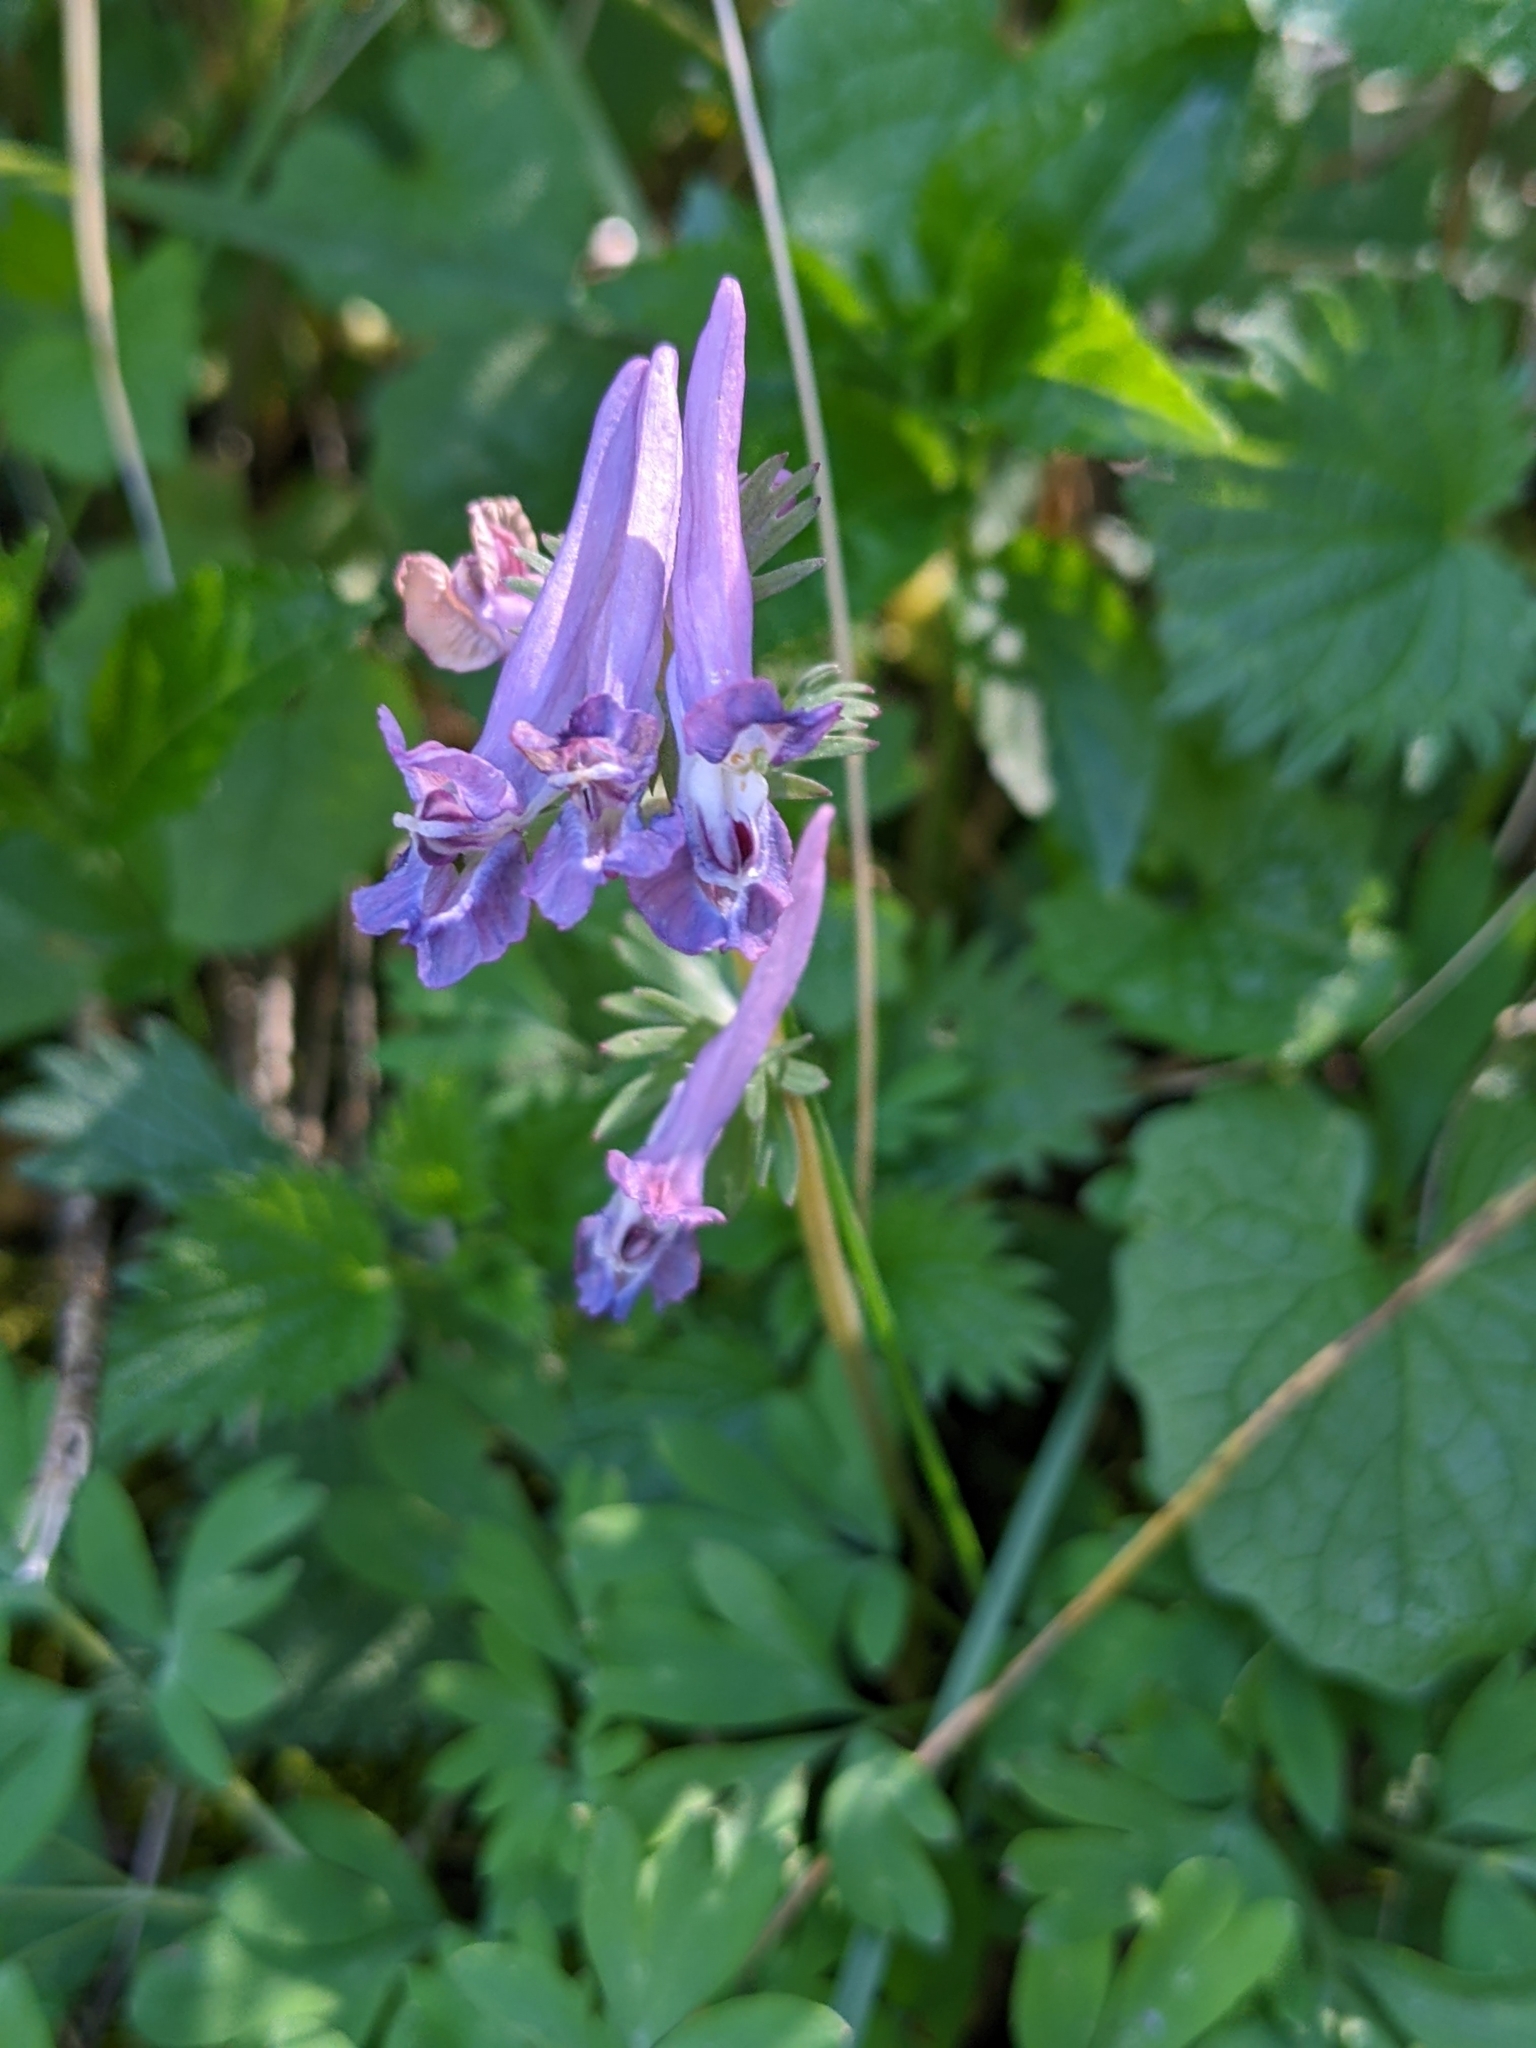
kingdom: Plantae
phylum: Tracheophyta
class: Magnoliopsida
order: Ranunculales
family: Papaveraceae
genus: Corydalis
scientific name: Corydalis solida
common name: Bird-in-a-bush
